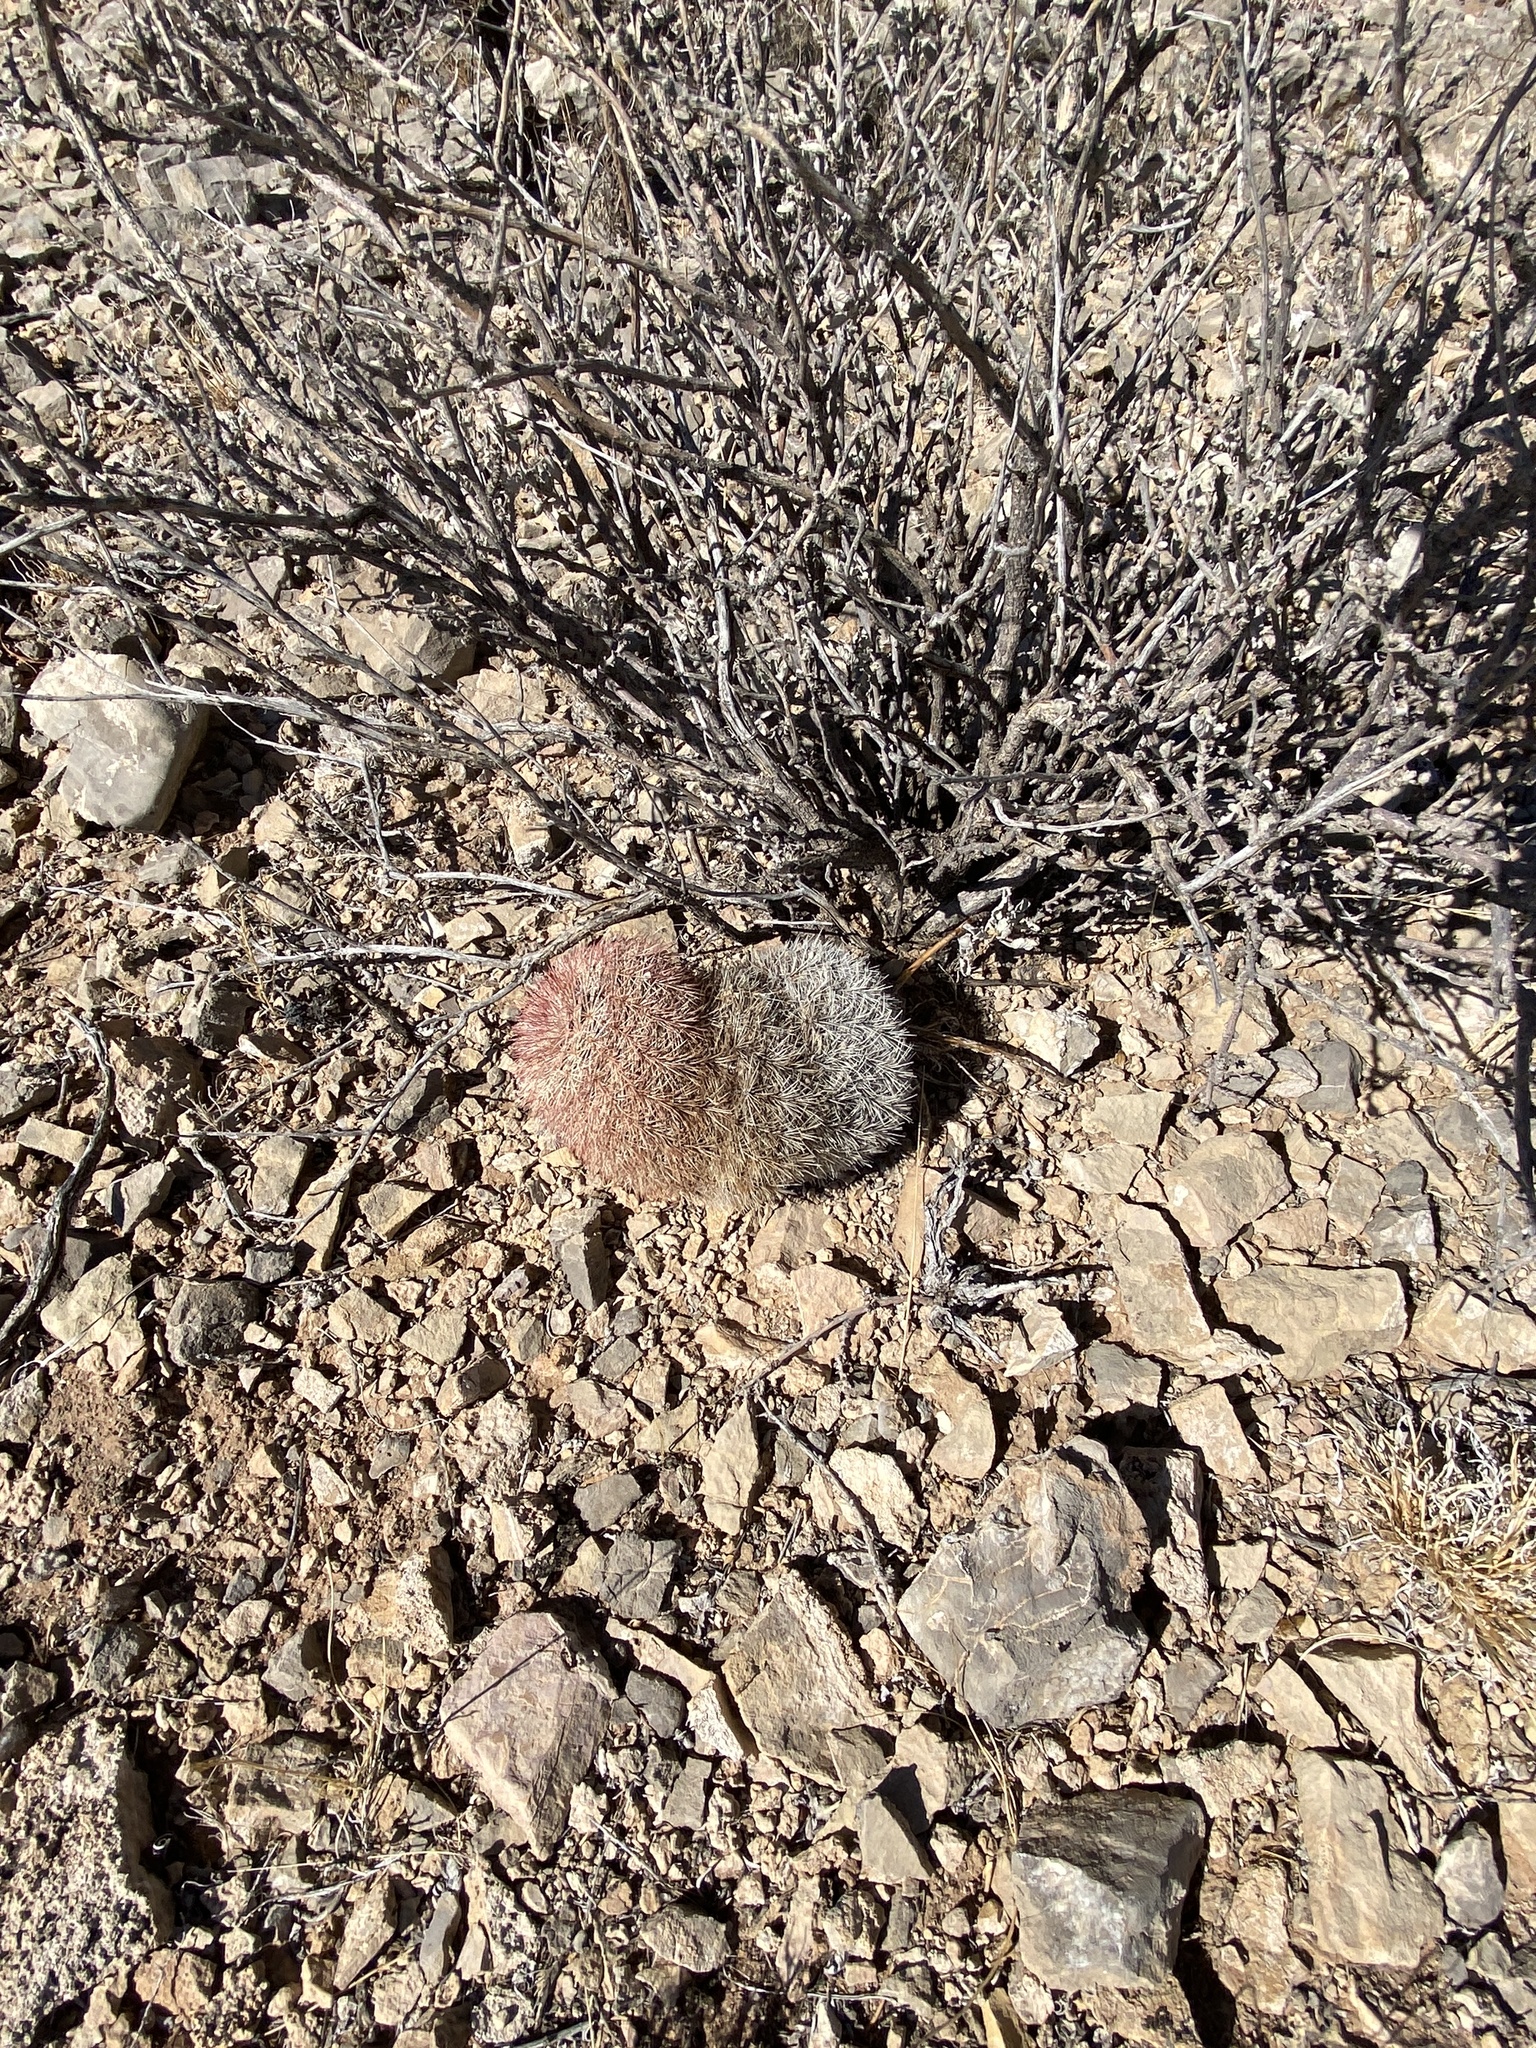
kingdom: Plantae
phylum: Tracheophyta
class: Magnoliopsida
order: Caryophyllales
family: Cactaceae
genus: Echinocereus
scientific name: Echinocereus dasyacanthus
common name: Spiny hedgehog cactus
